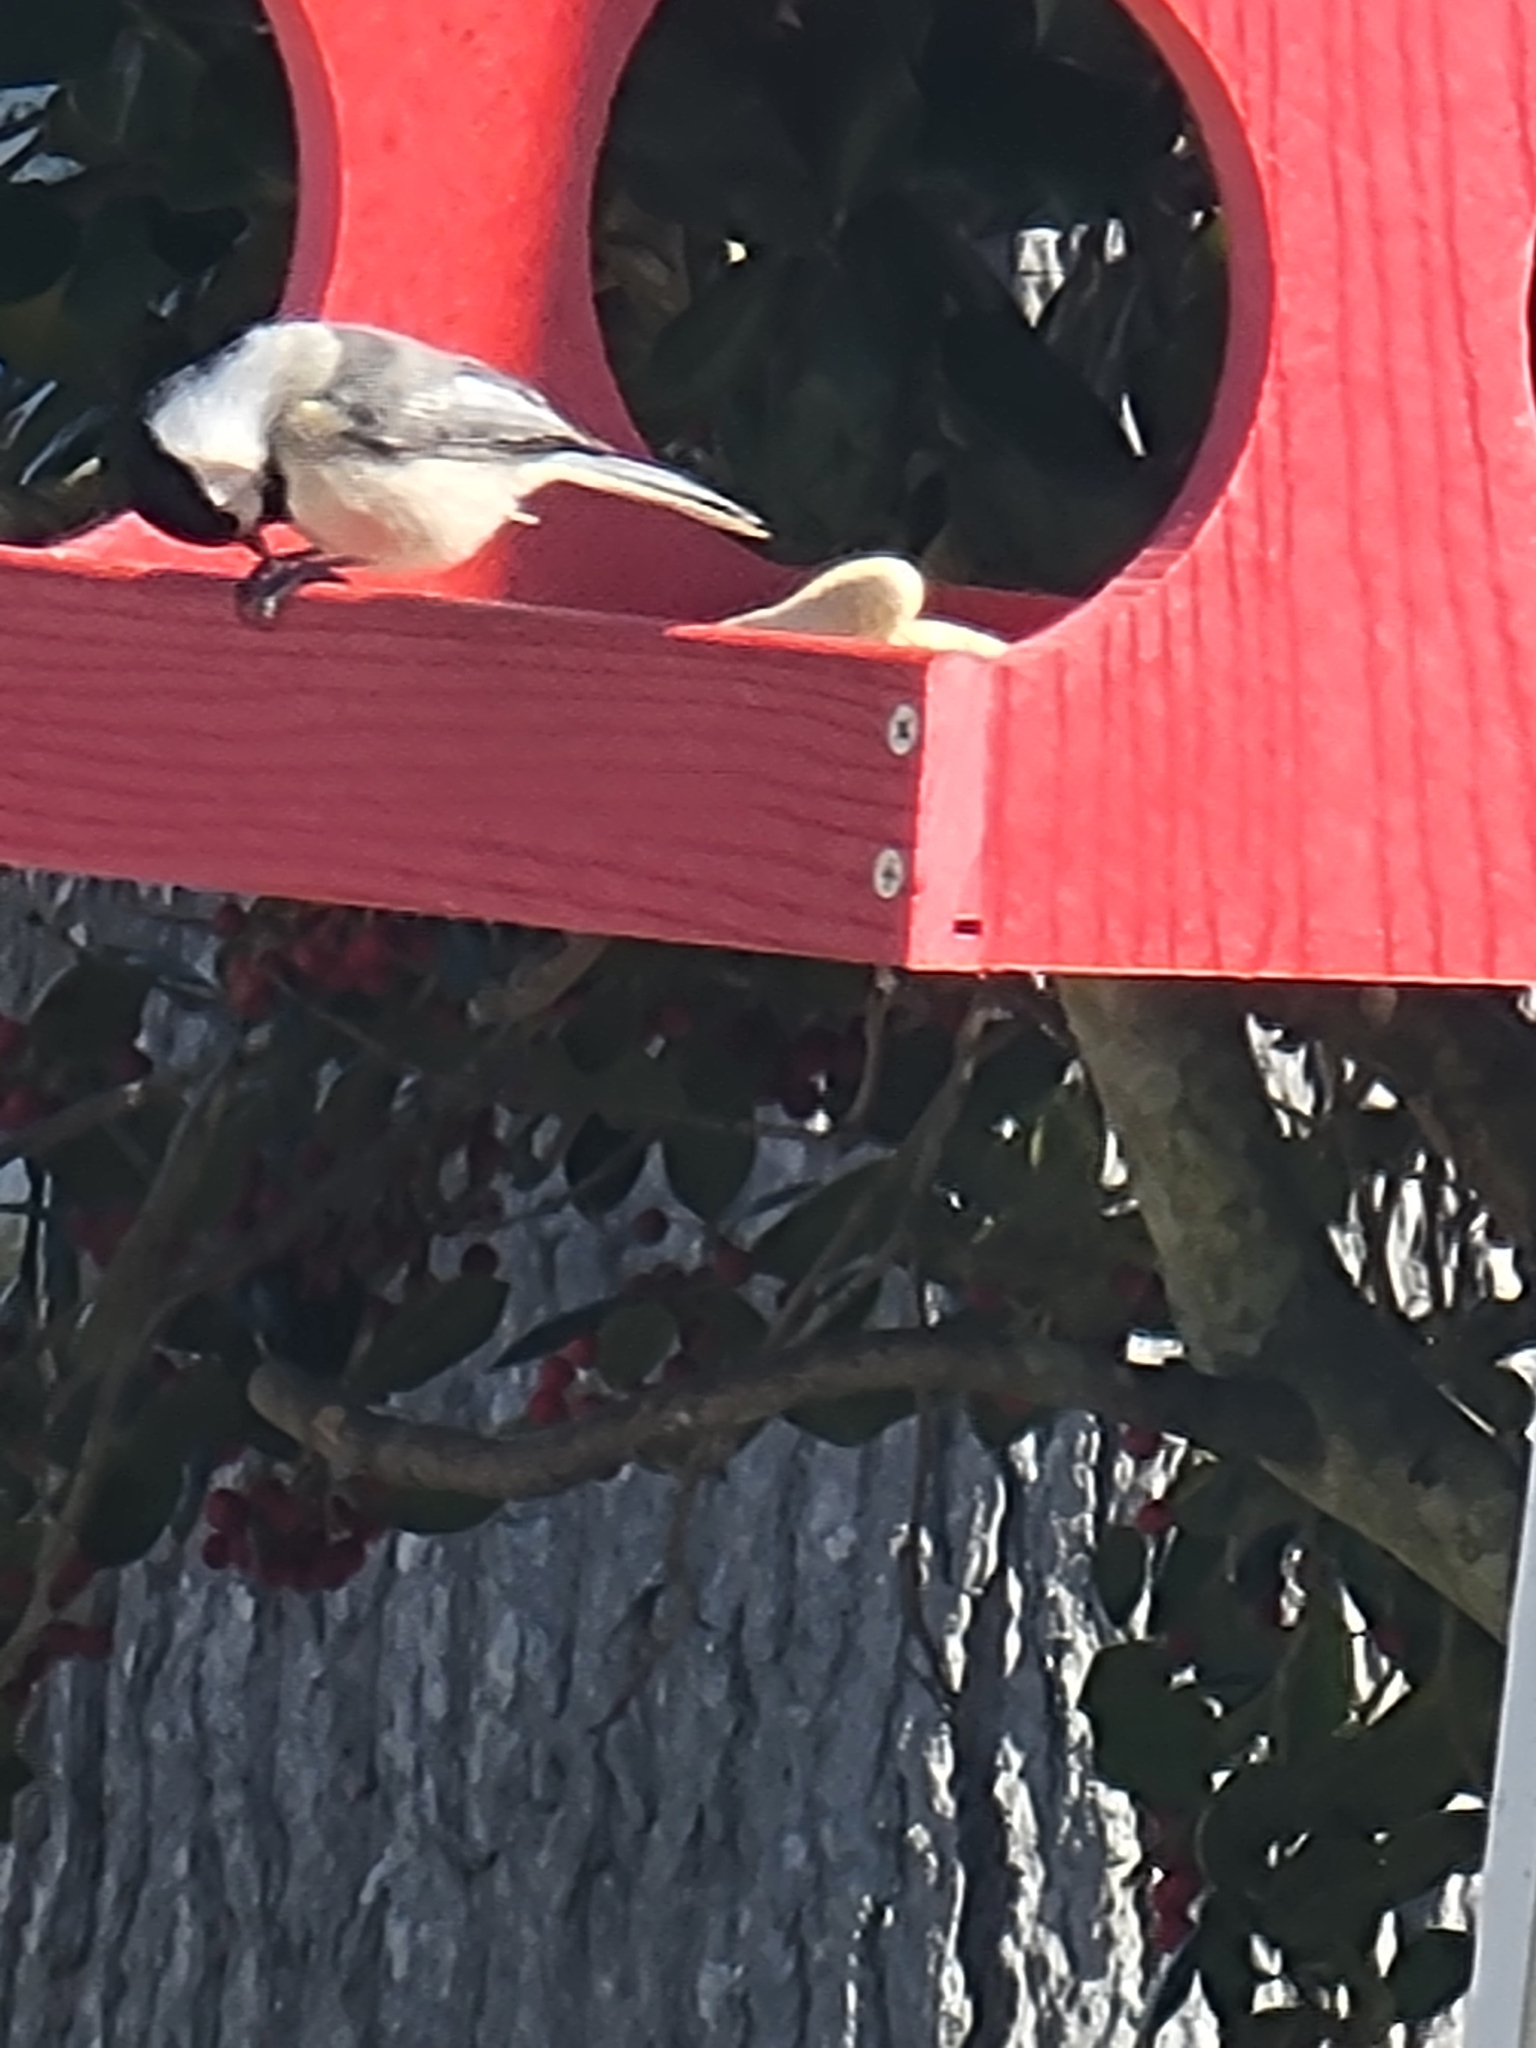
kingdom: Animalia
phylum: Chordata
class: Aves
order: Passeriformes
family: Paridae
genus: Poecile
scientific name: Poecile carolinensis
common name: Carolina chickadee
